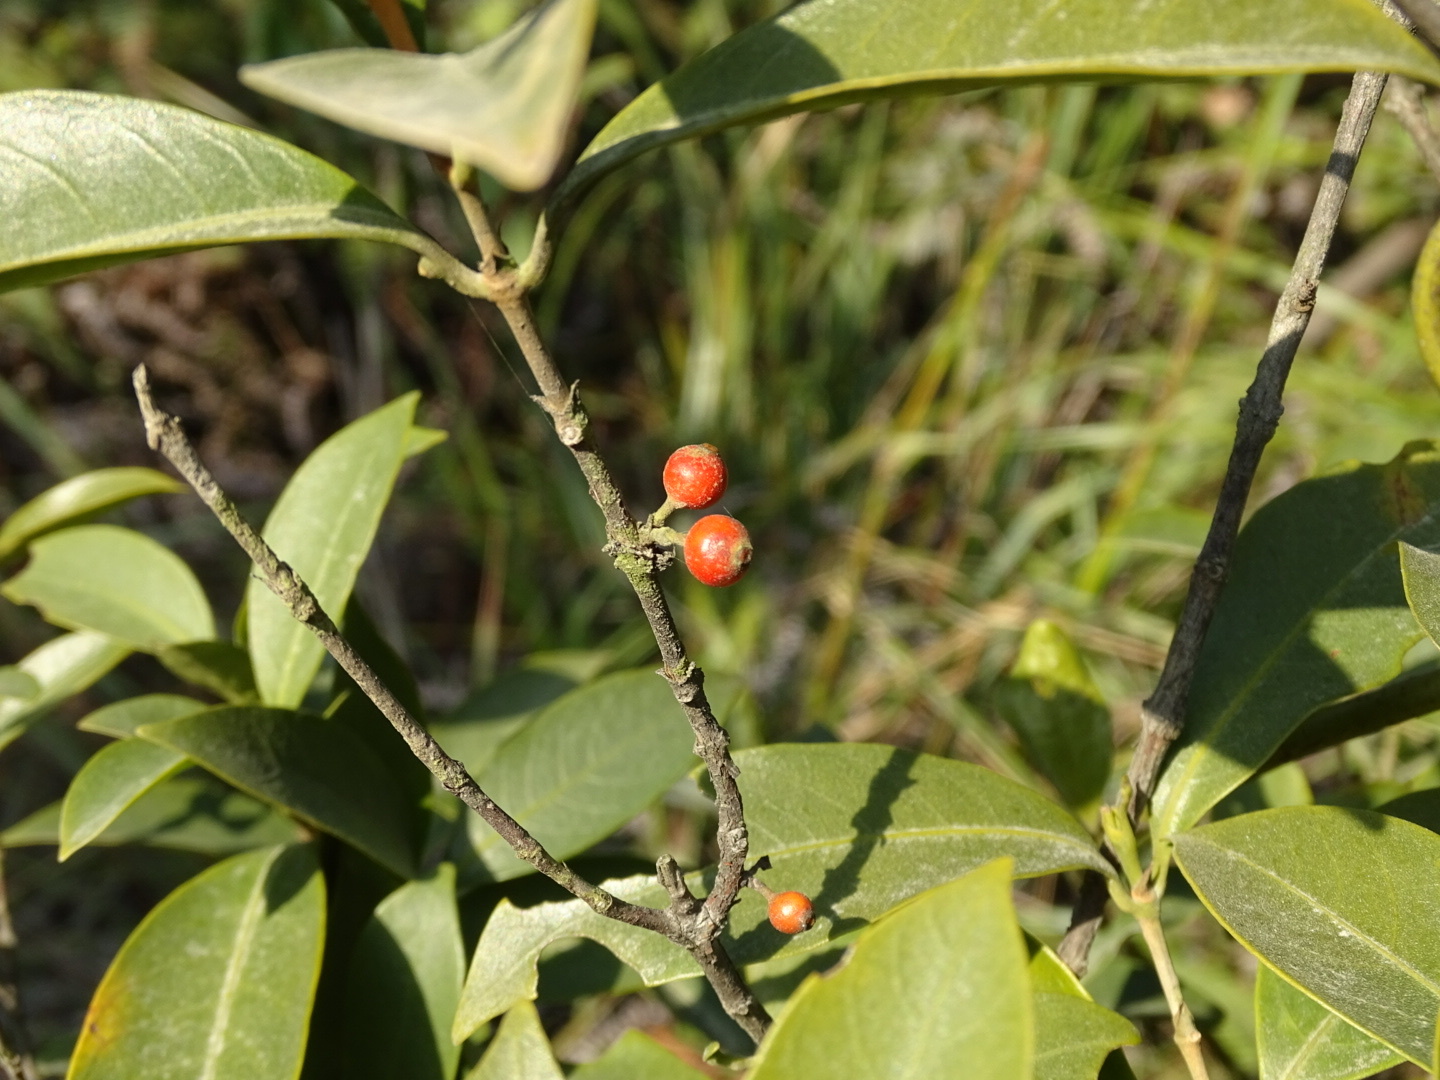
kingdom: Plantae
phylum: Tracheophyta
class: Magnoliopsida
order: Gentianales
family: Rubiaceae
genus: Diplospora
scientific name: Diplospora dubia
